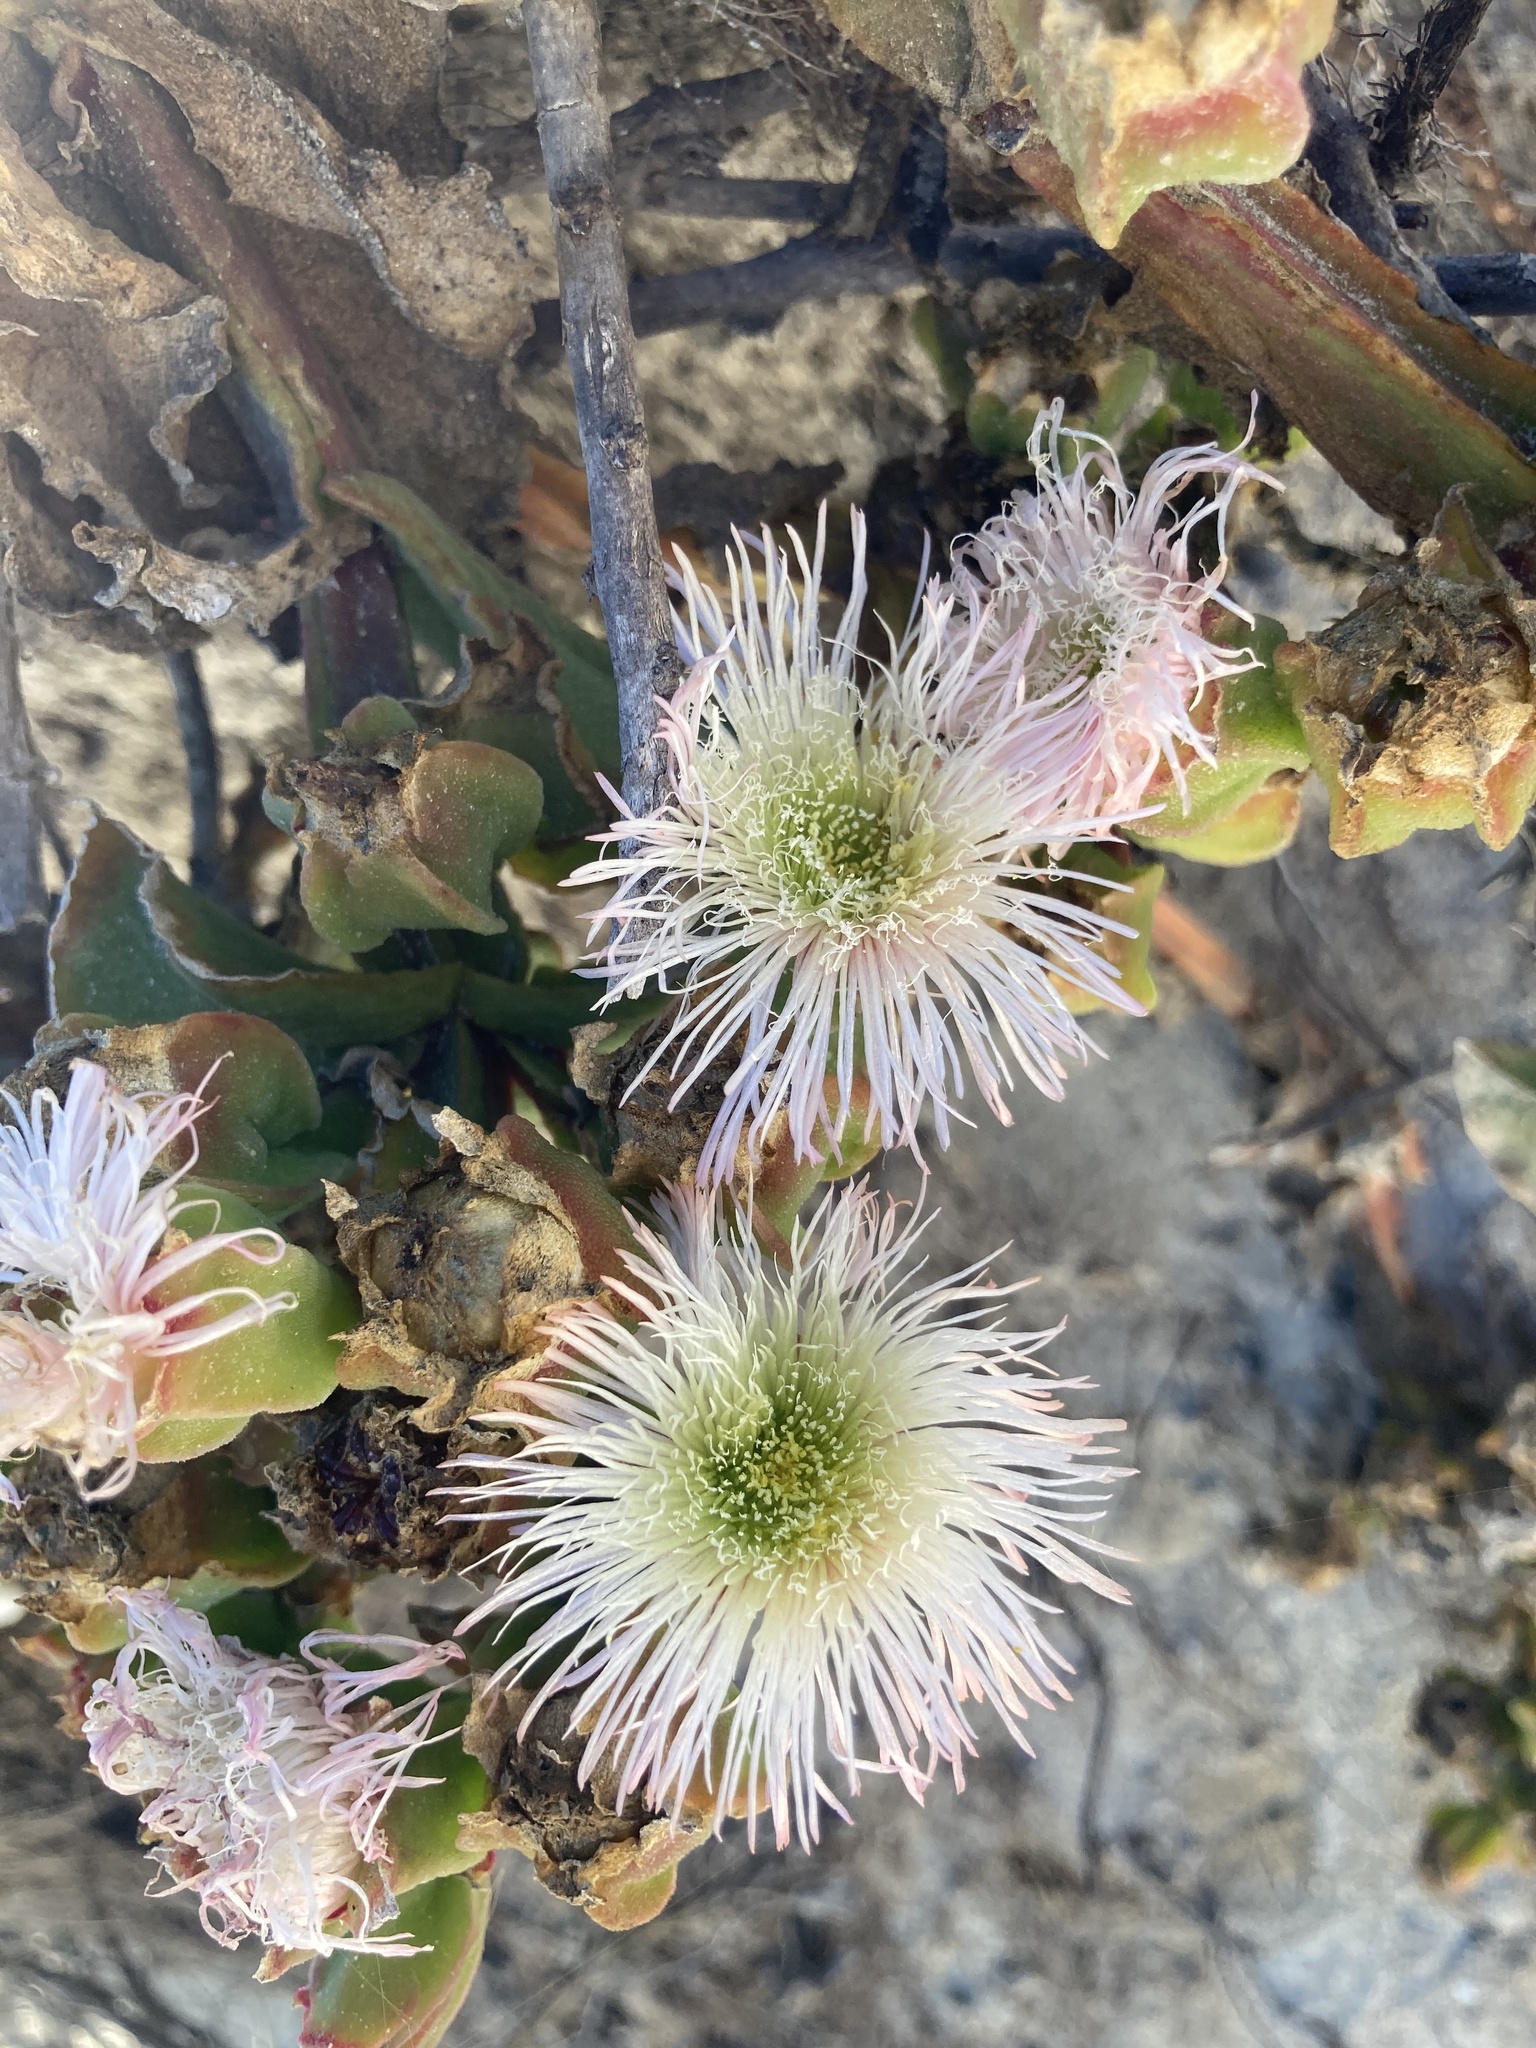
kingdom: Plantae
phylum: Tracheophyta
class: Magnoliopsida
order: Caryophyllales
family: Aizoaceae
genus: Mesembryanthemum
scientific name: Mesembryanthemum guerichianum
